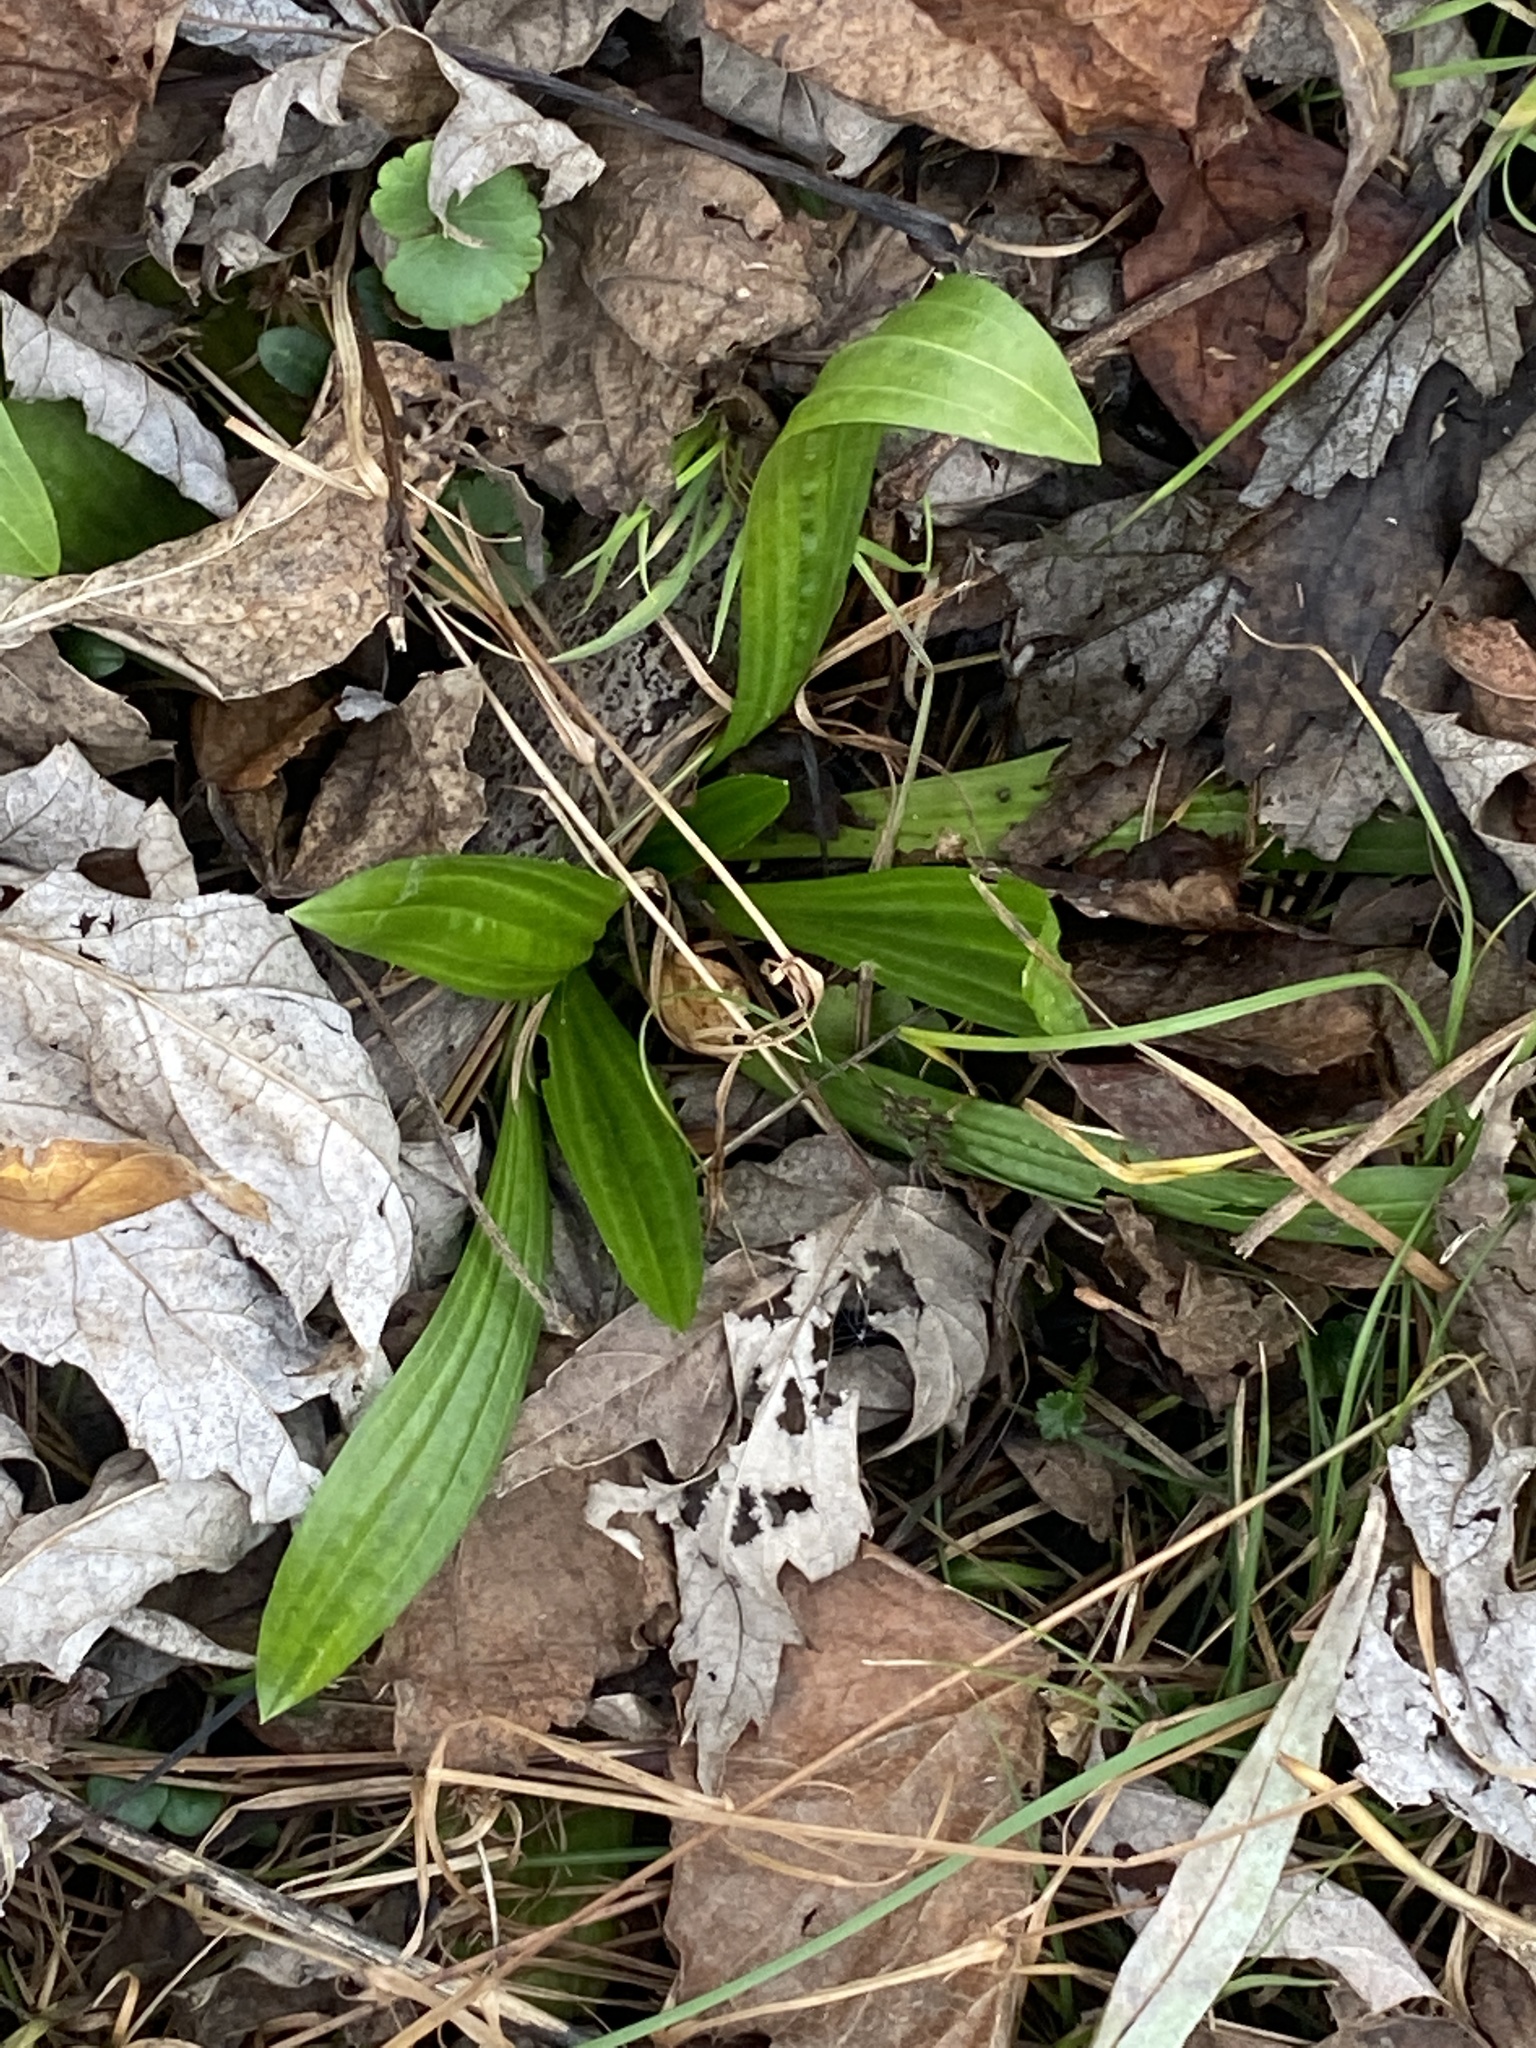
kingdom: Plantae
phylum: Tracheophyta
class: Magnoliopsida
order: Lamiales
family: Plantaginaceae
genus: Plantago
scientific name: Plantago lanceolata
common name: Ribwort plantain
